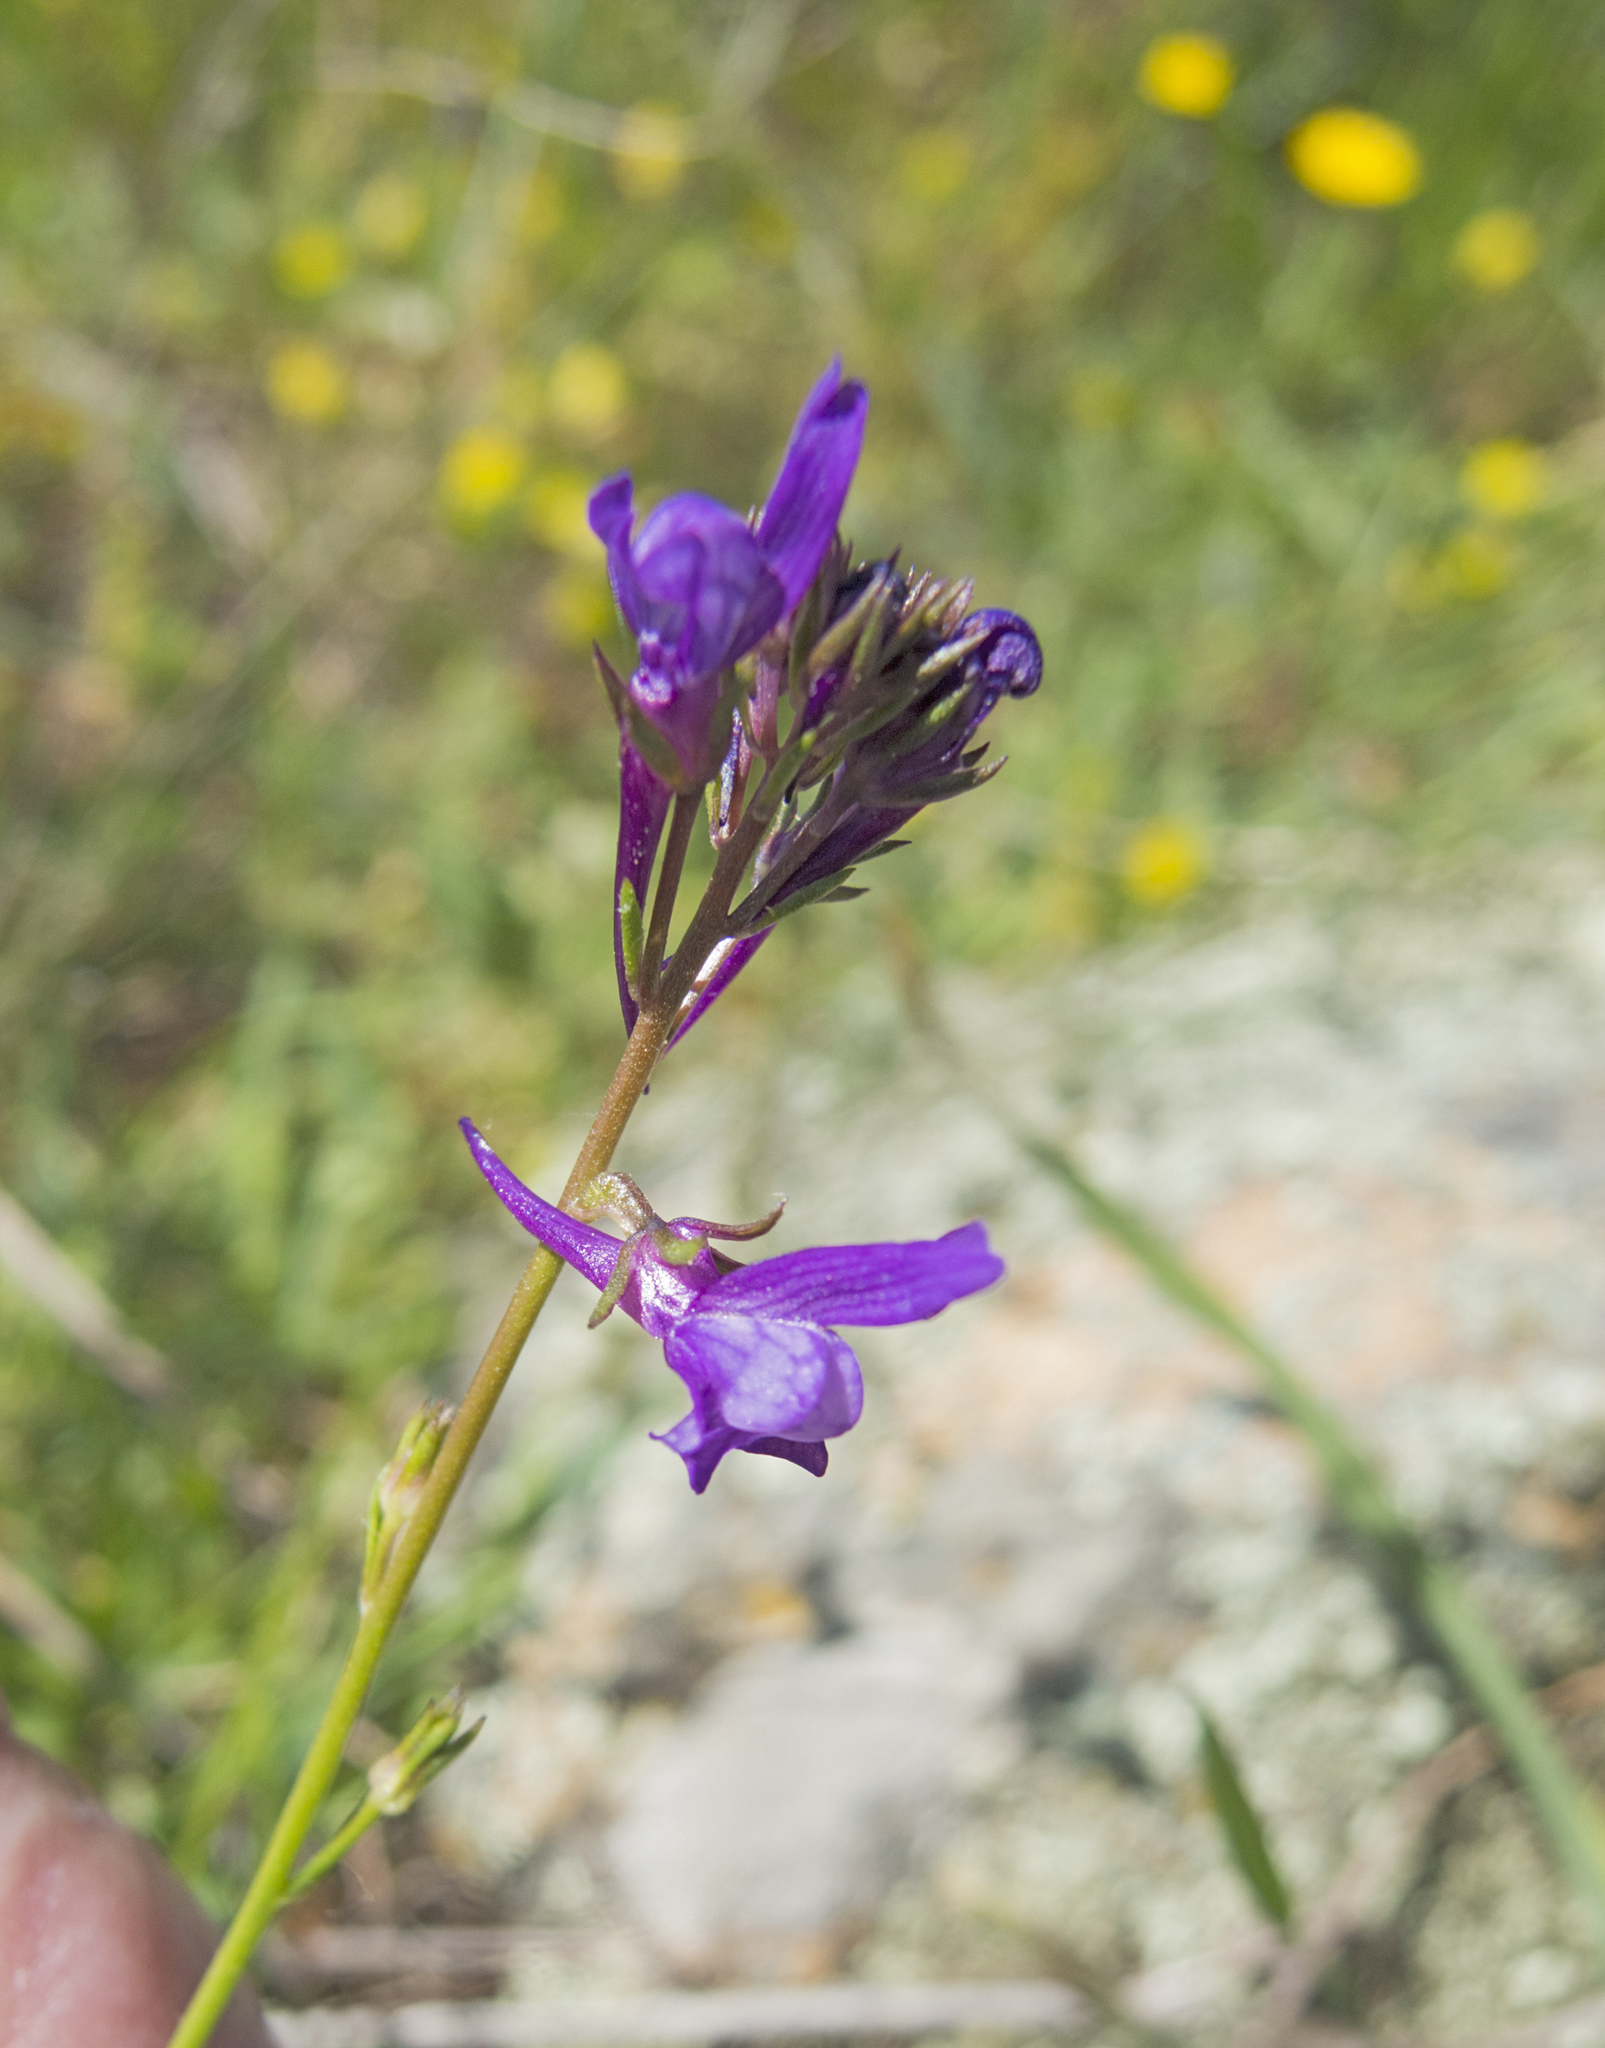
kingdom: Plantae
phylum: Tracheophyta
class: Magnoliopsida
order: Lamiales
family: Plantaginaceae
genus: Linaria
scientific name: Linaria pelisseriana
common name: Jersey toadflax
